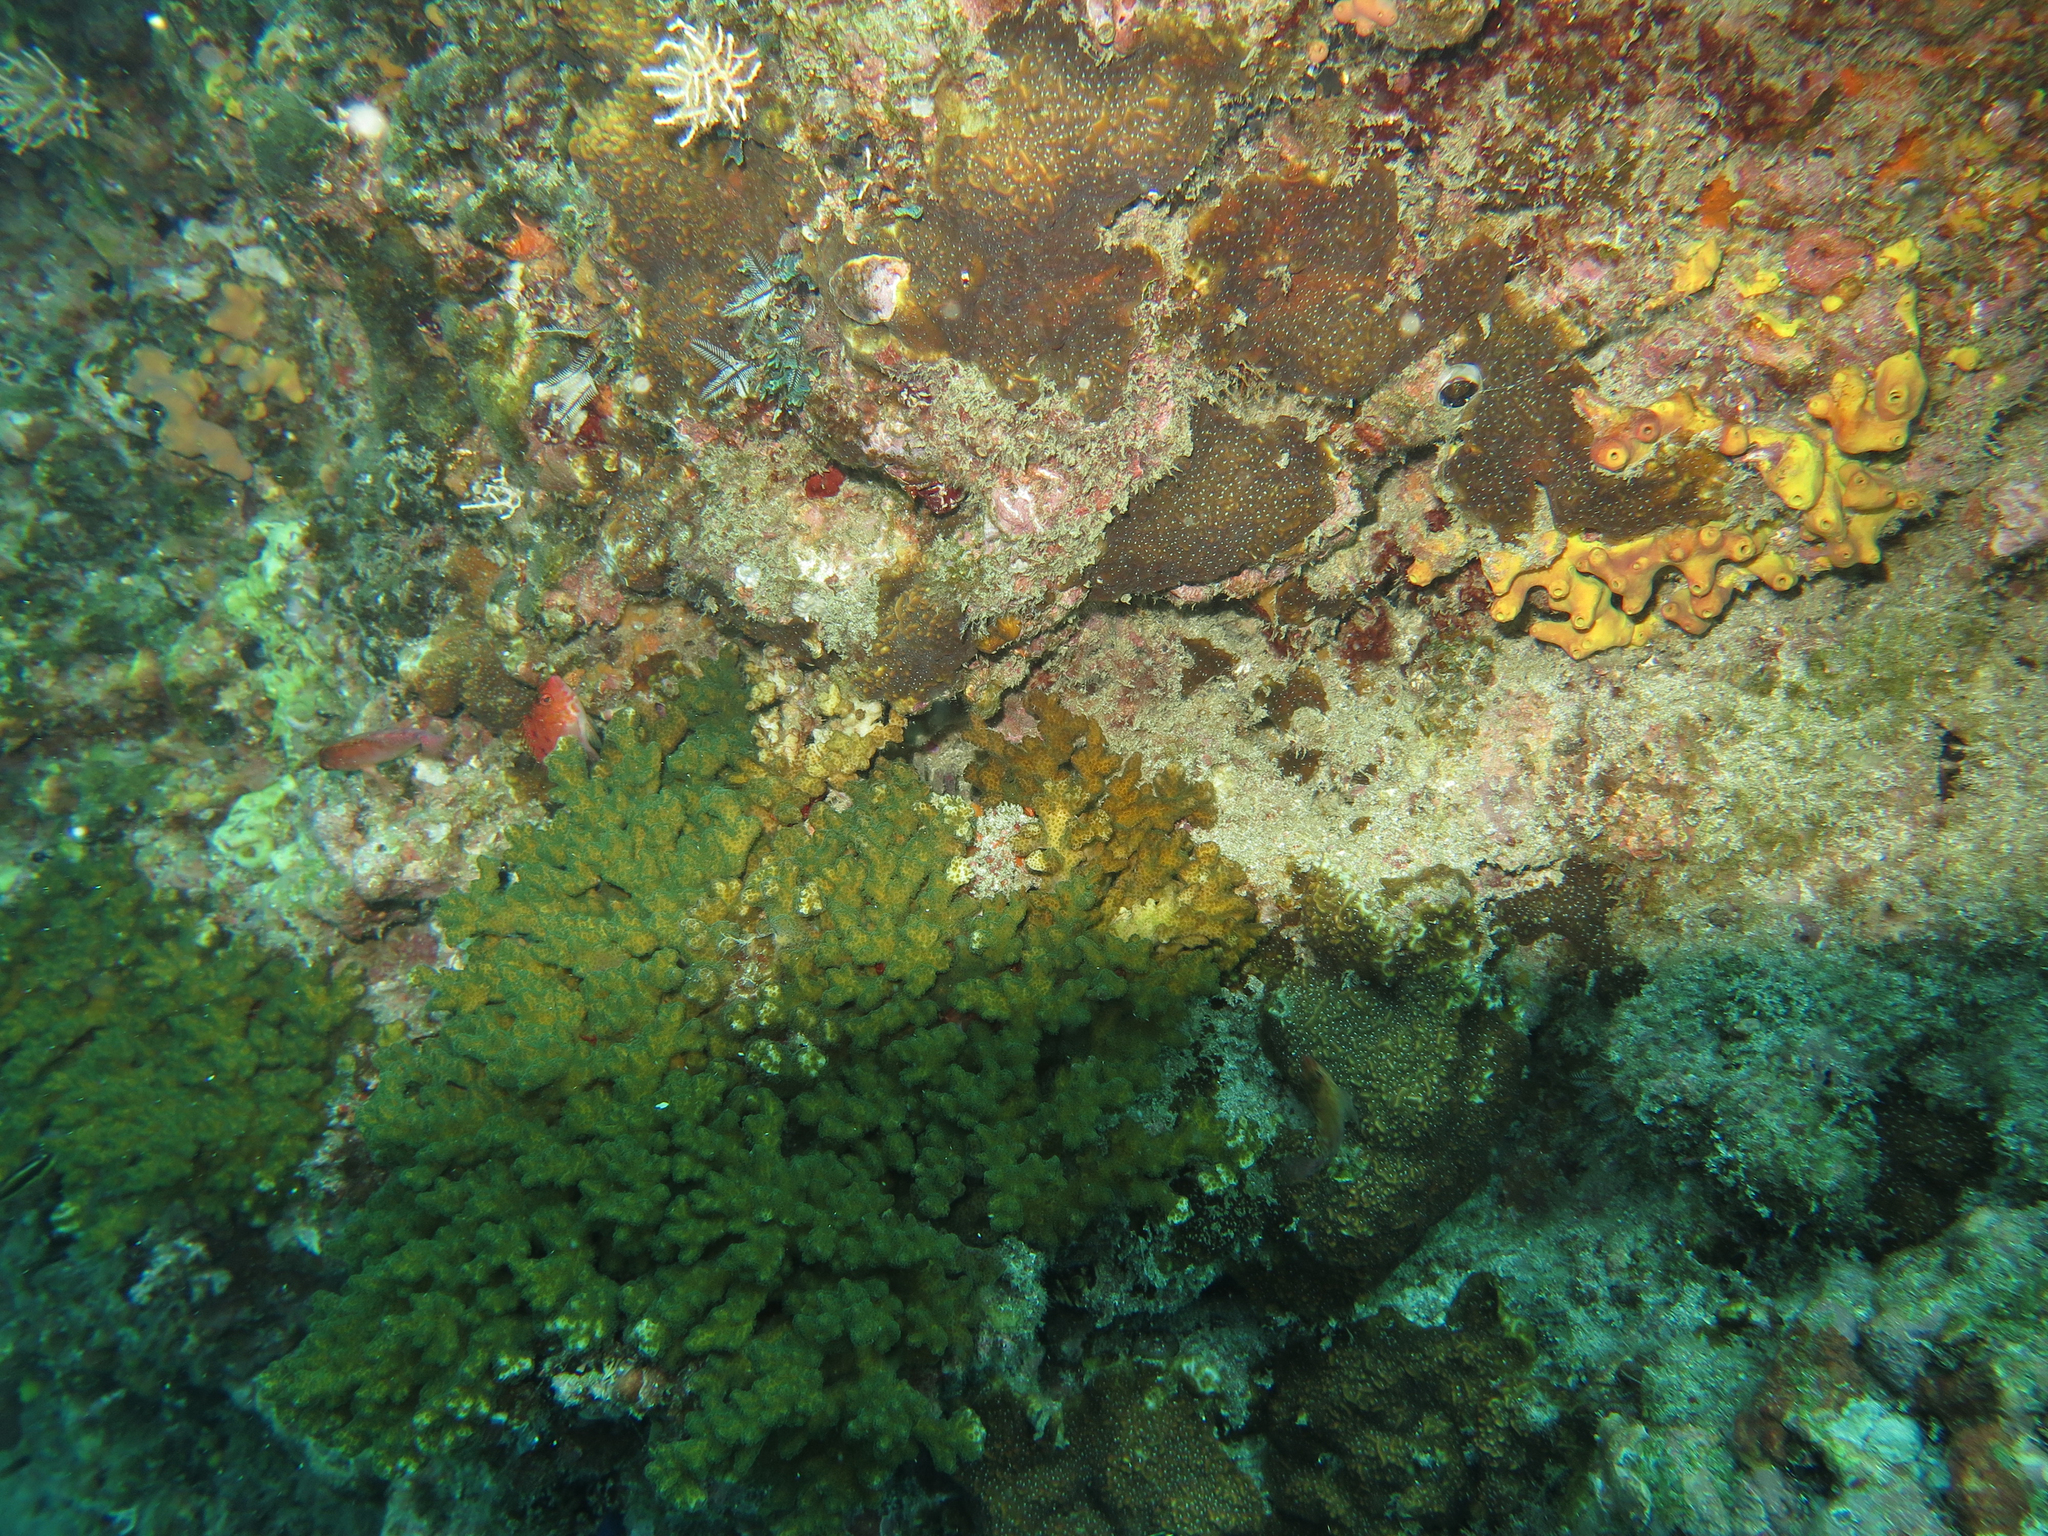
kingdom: Animalia
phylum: Cnidaria
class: Anthozoa
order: Scleractinia
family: Agariciidae
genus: Pavona
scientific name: Pavona chiriquiensis
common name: Leaf coral
